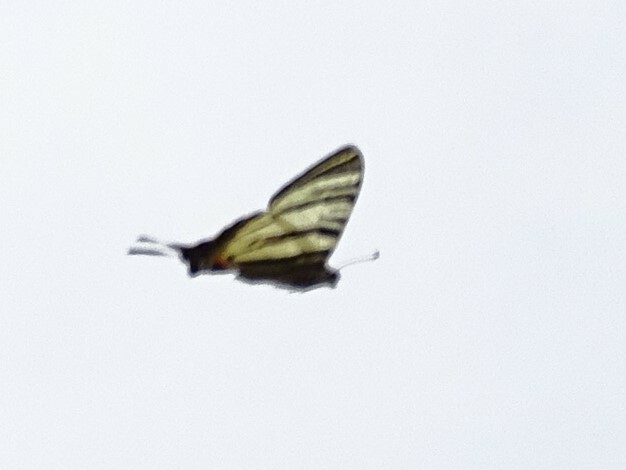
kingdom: Animalia
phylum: Arthropoda
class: Insecta
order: Lepidoptera
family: Papilionidae
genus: Iphiclides
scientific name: Iphiclides podalirius
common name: Scarce swallowtail
